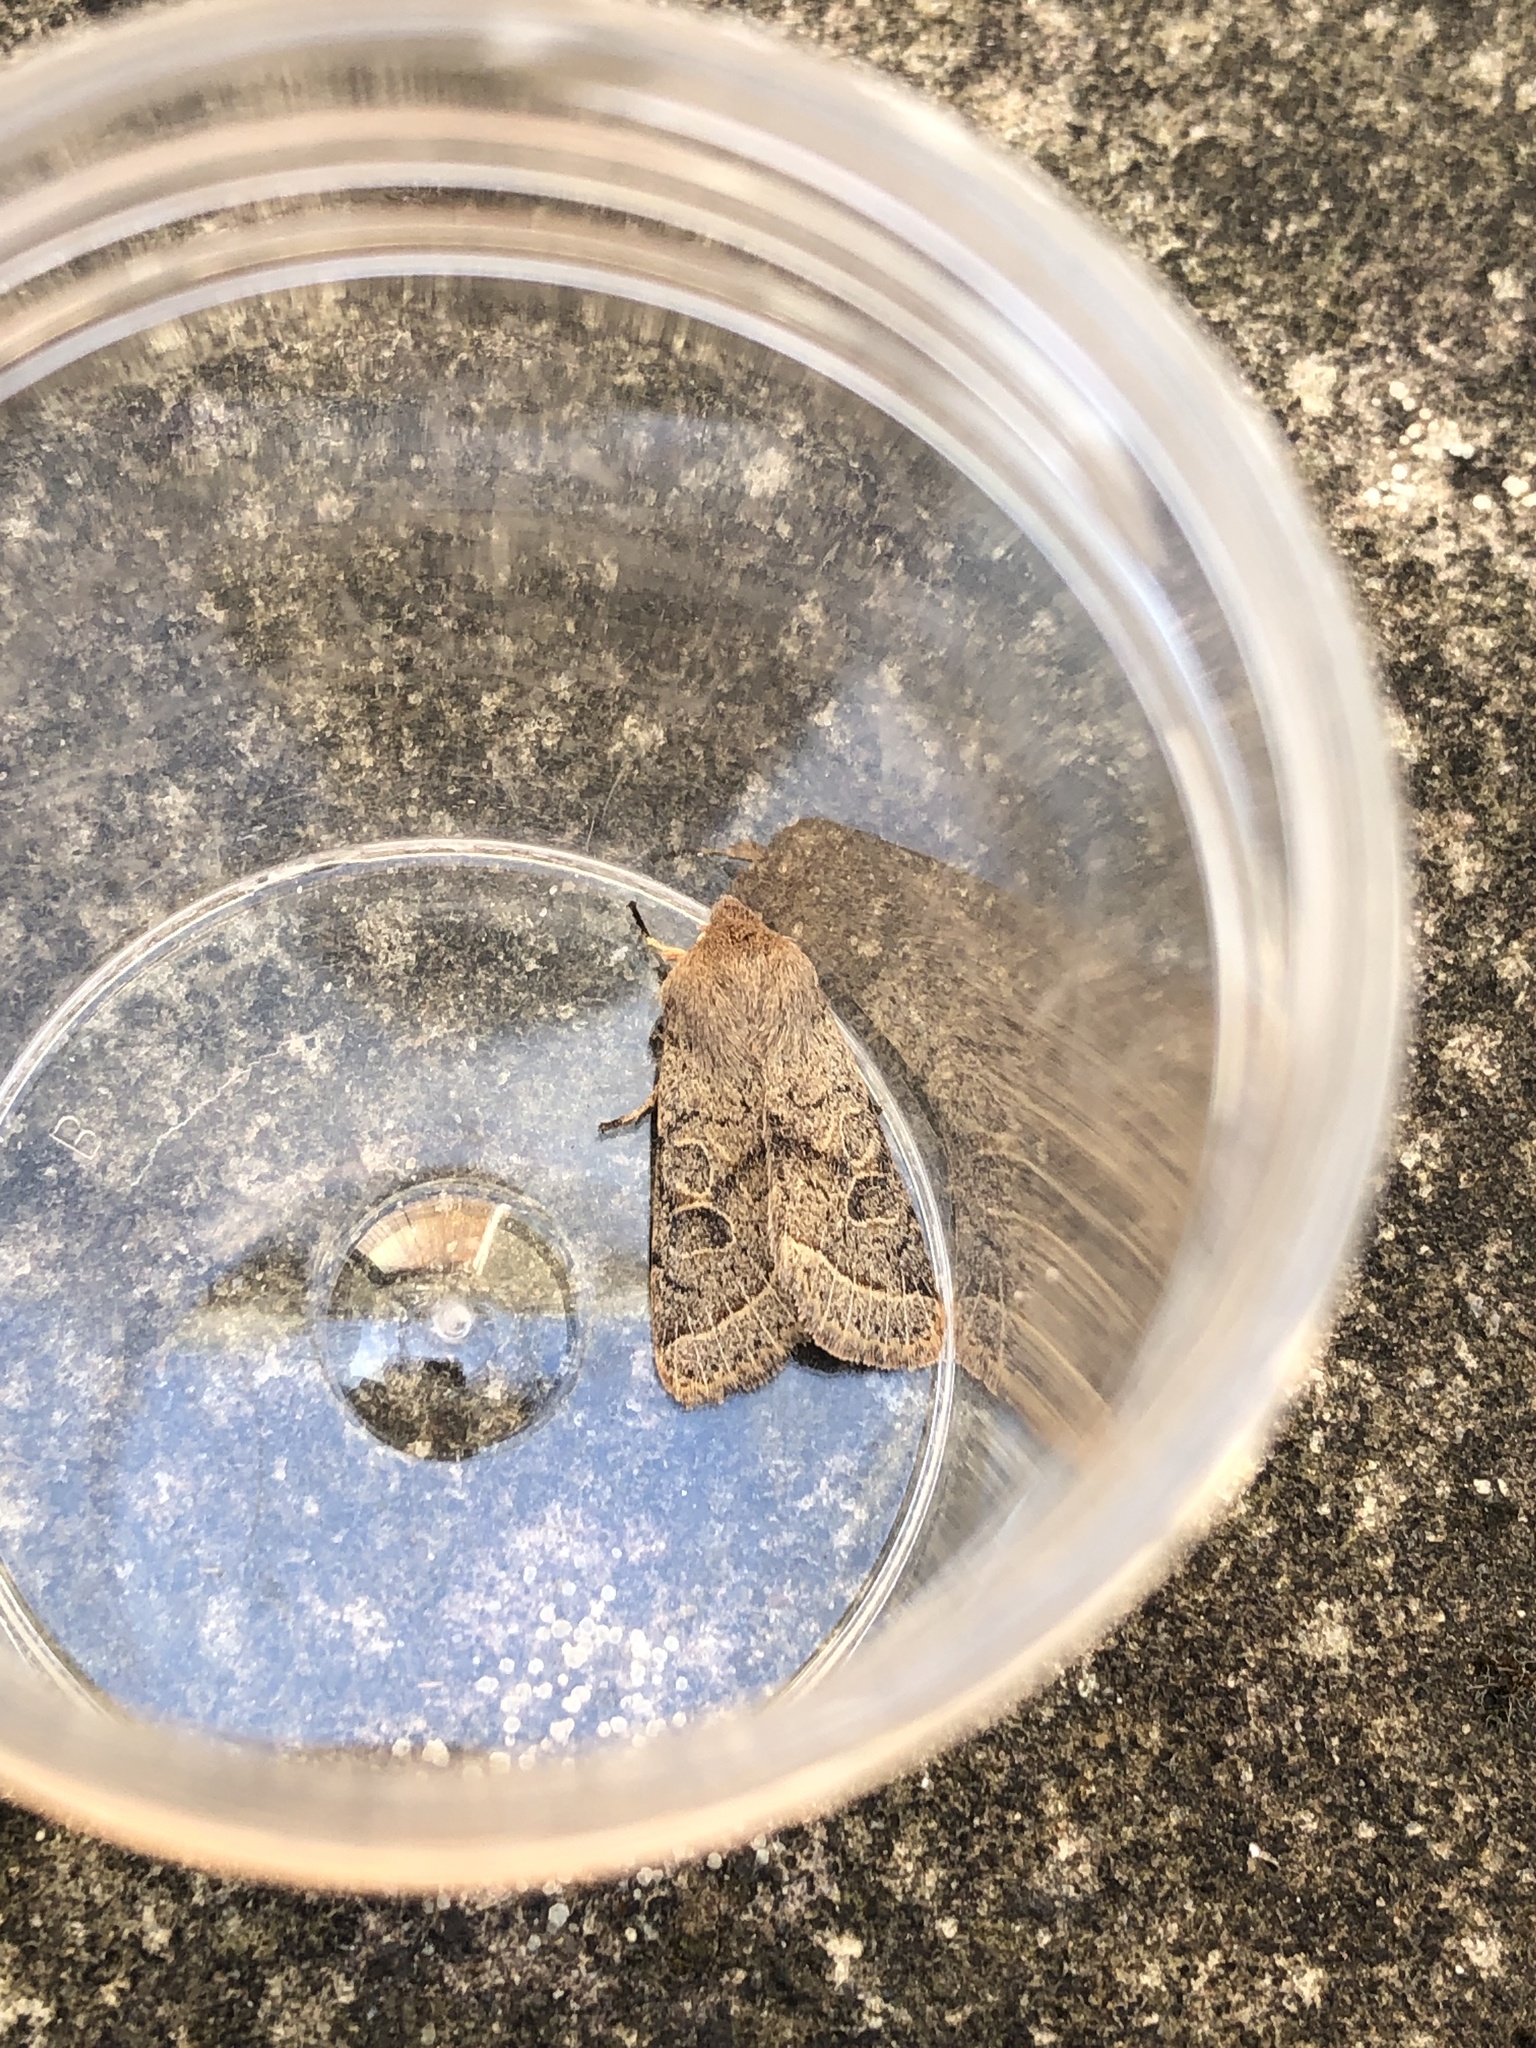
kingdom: Animalia
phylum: Arthropoda
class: Insecta
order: Lepidoptera
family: Noctuidae
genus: Orthosia
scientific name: Orthosia cerasi
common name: Common quaker
